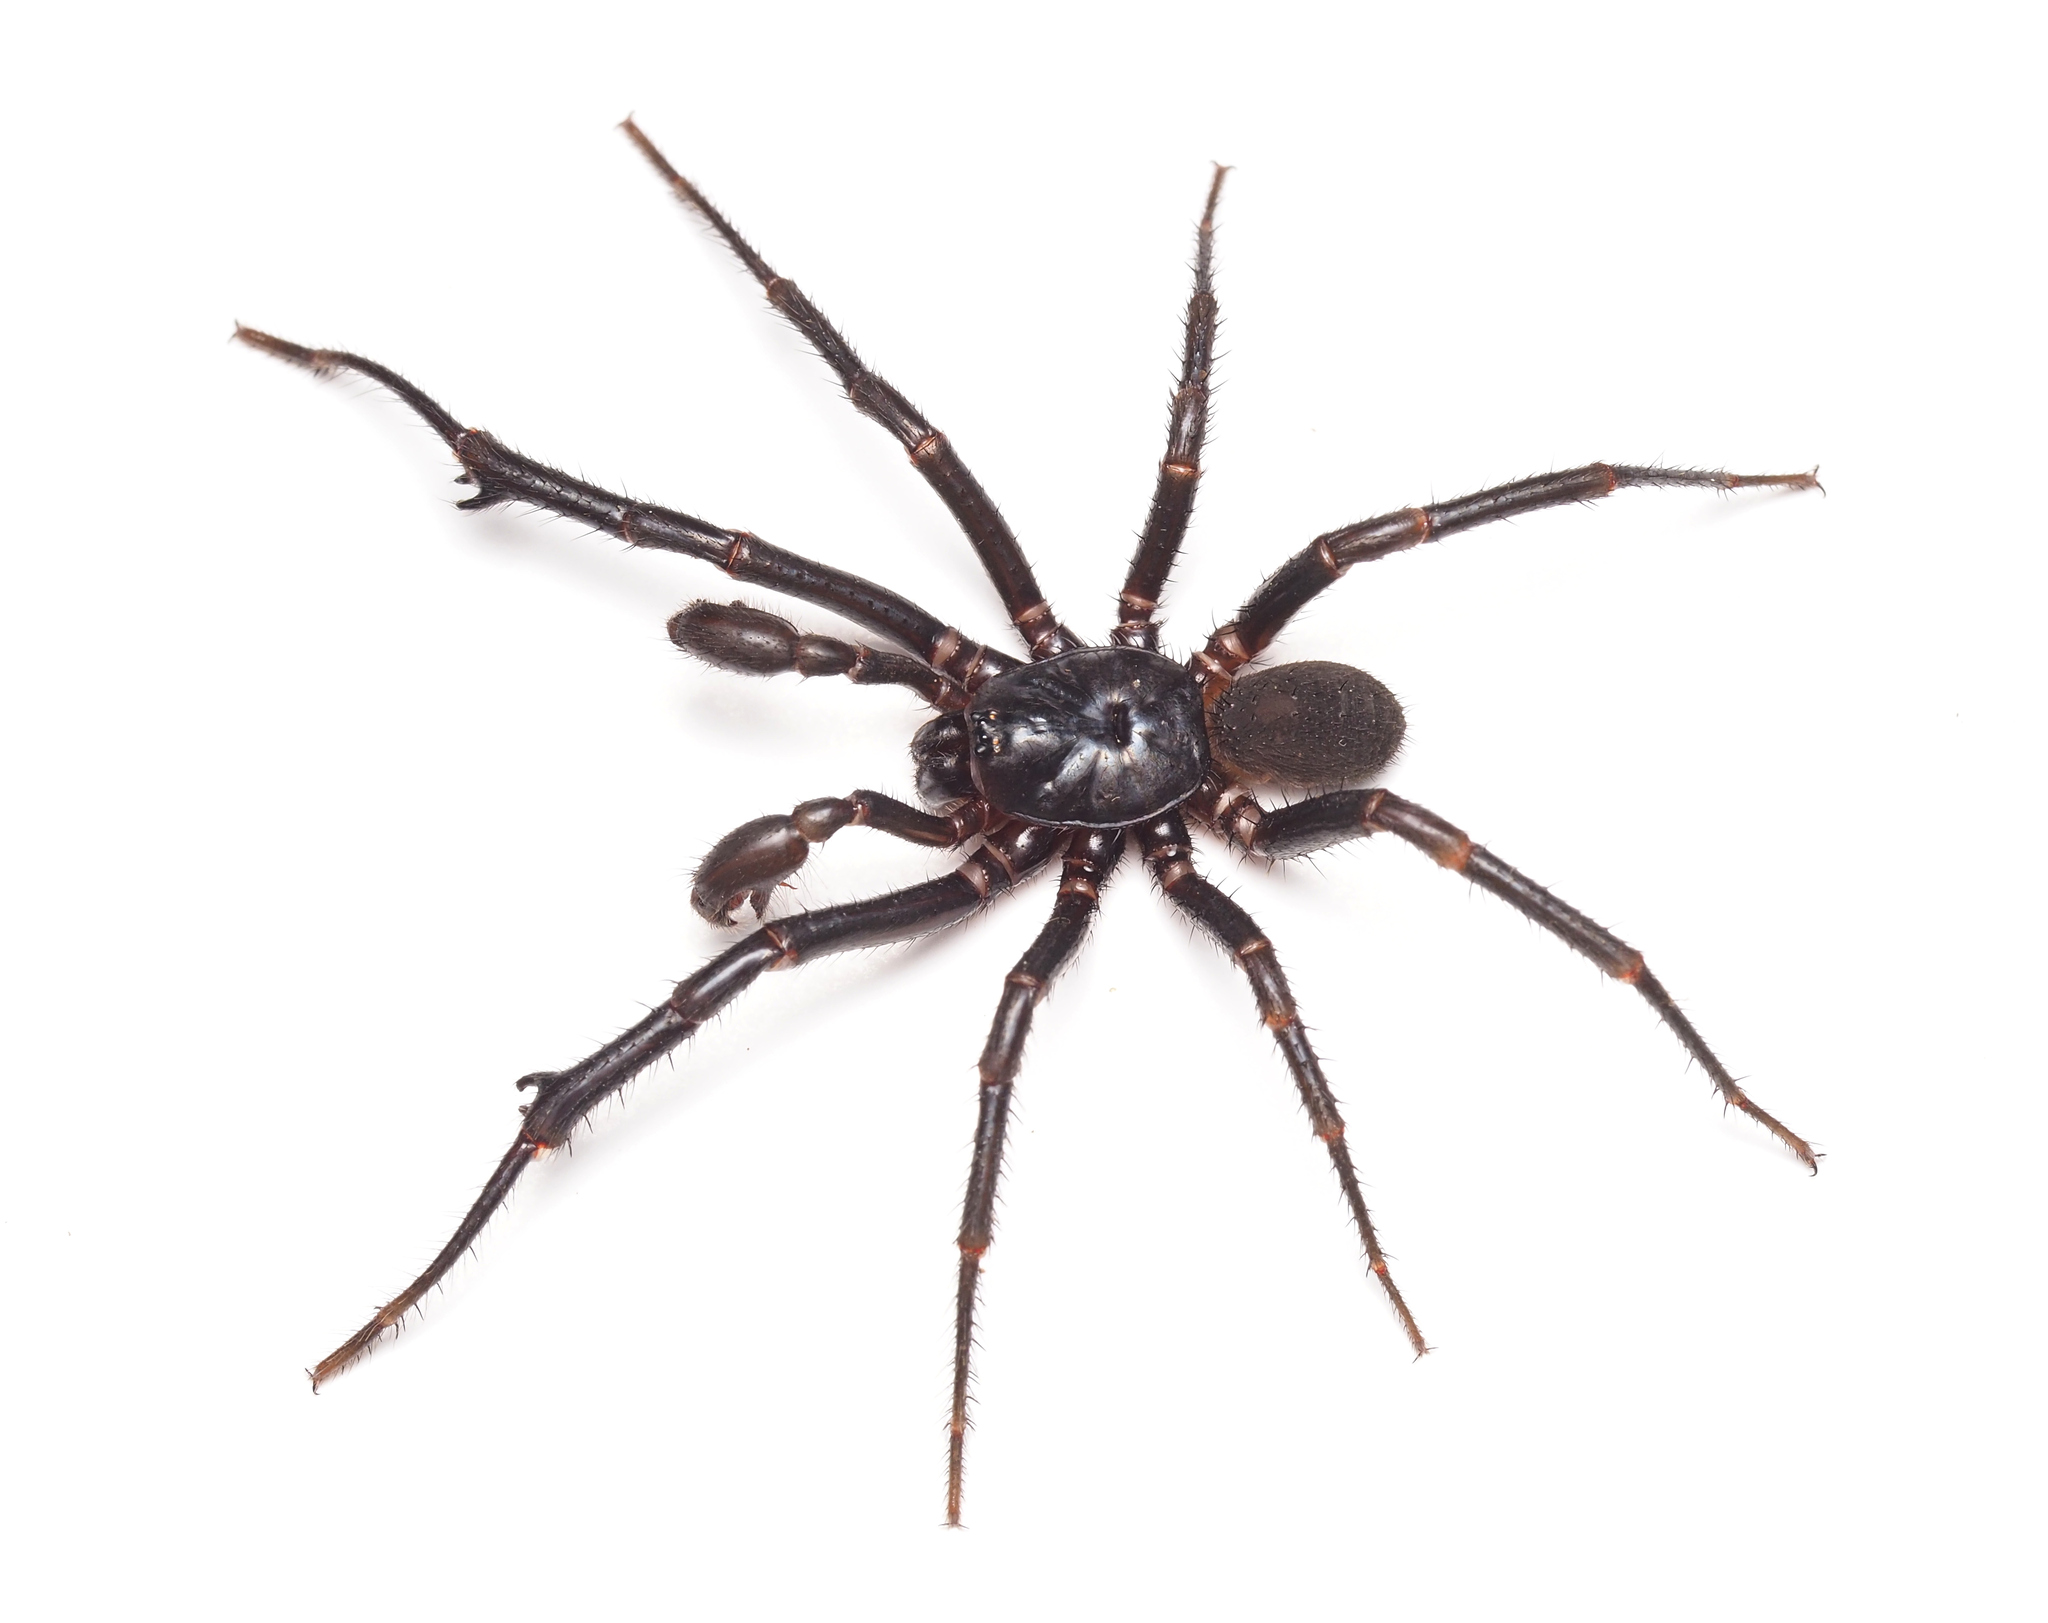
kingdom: Animalia
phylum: Arthropoda
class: Arachnida
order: Araneae
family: Idiopidae
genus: Cataxia
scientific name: Cataxia
